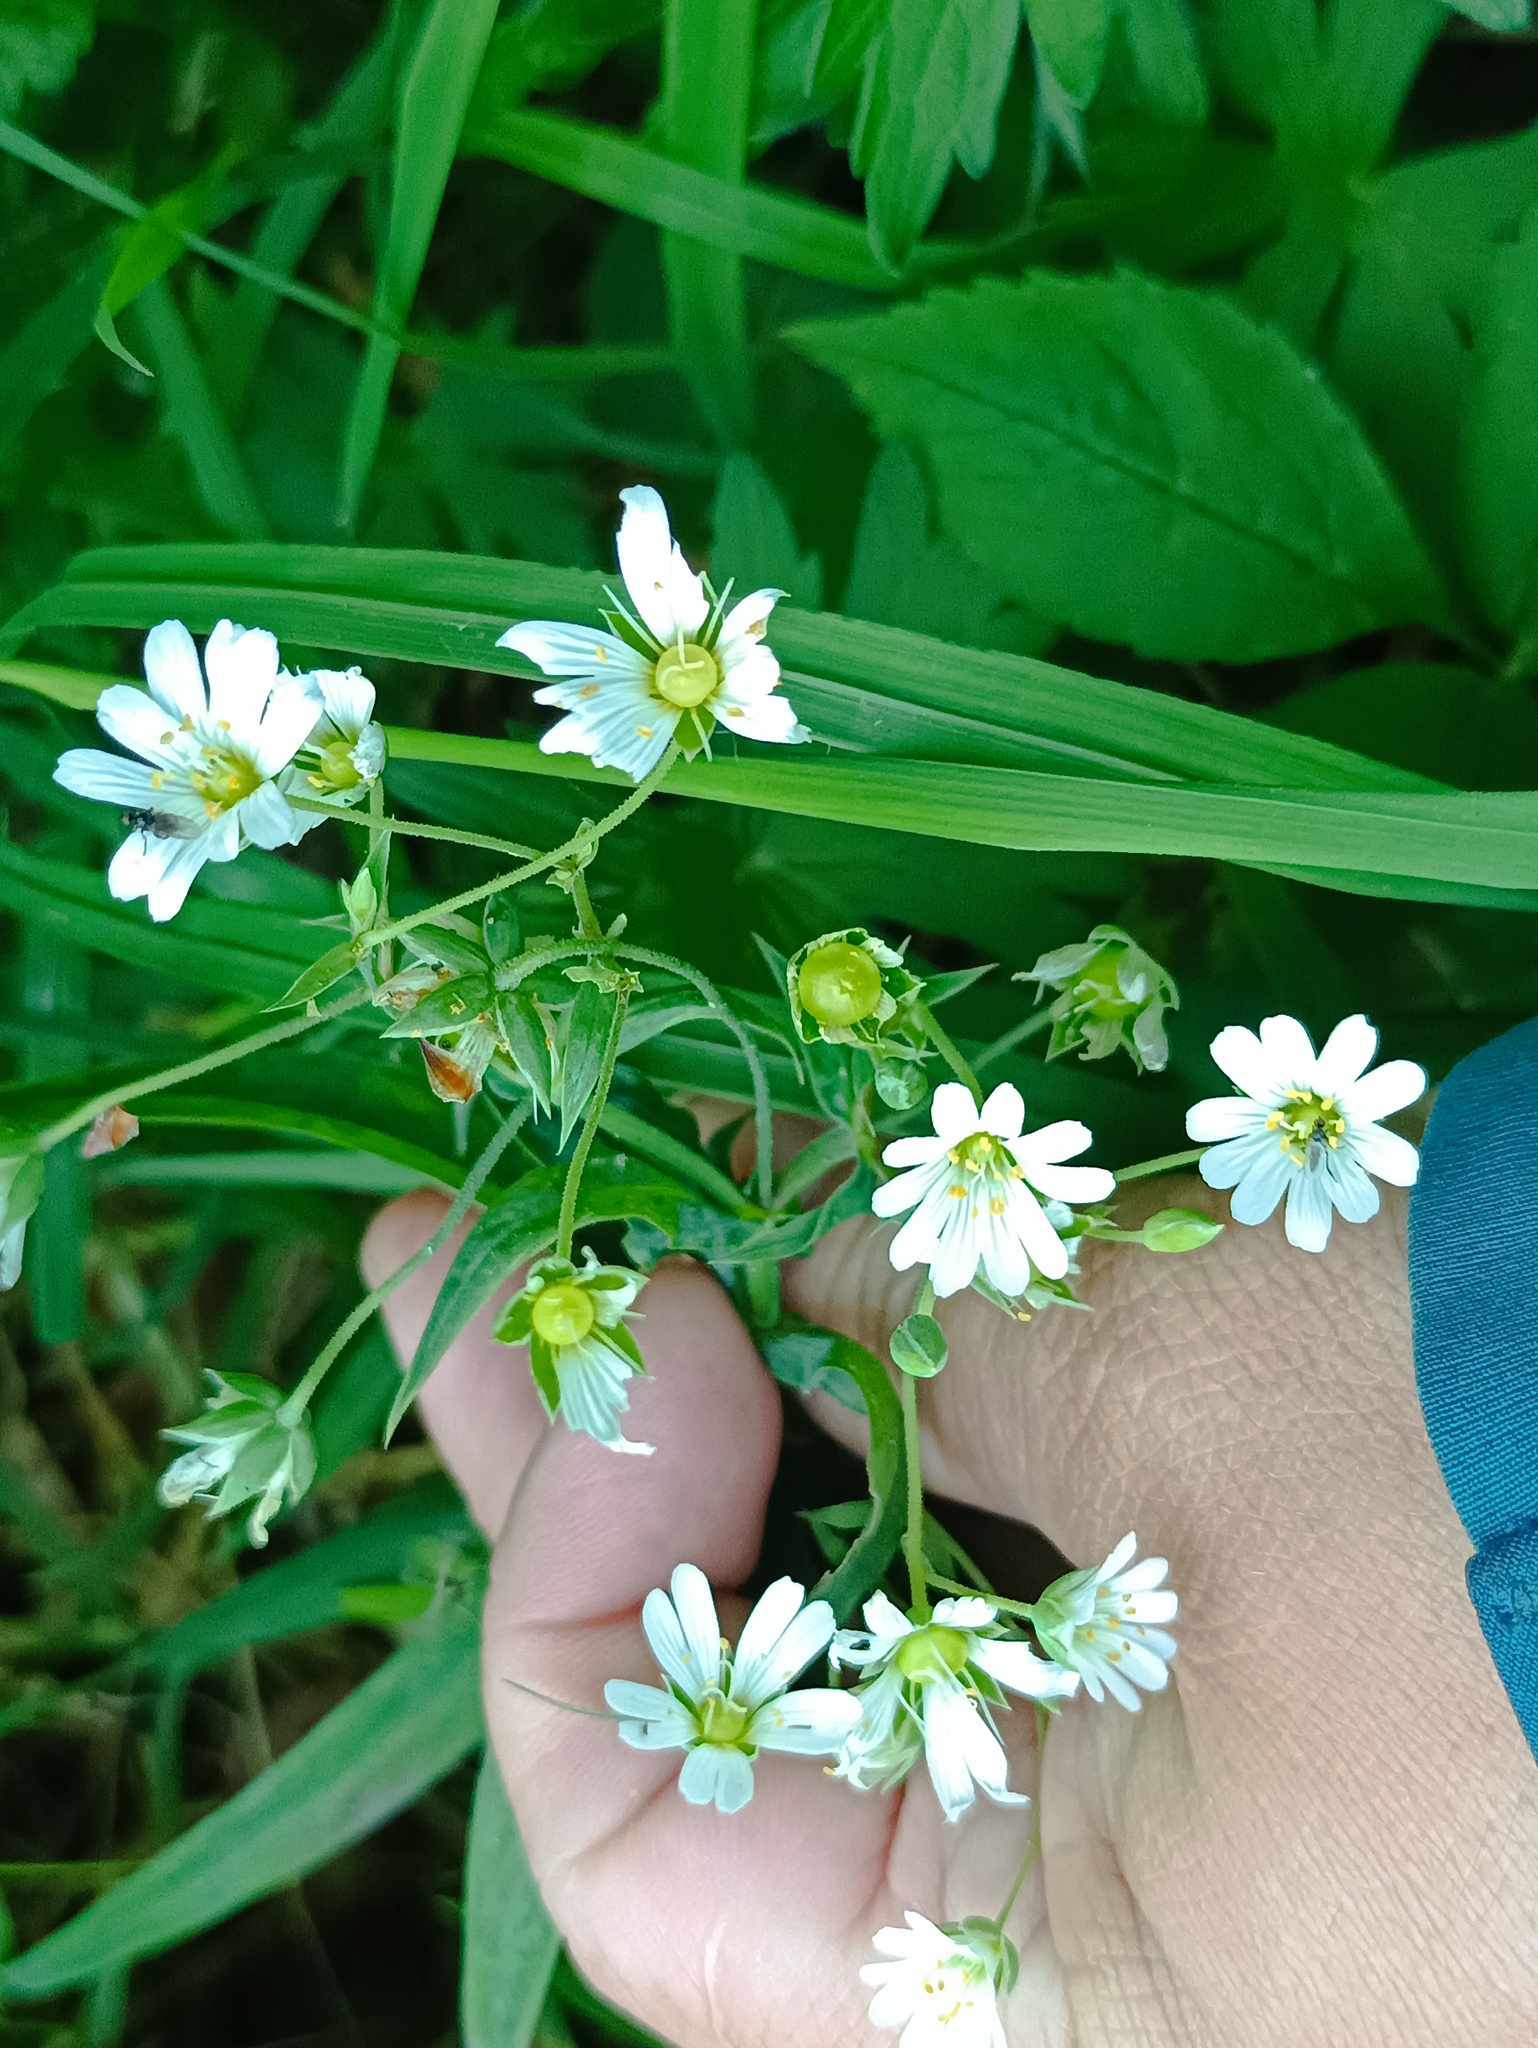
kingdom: Plantae
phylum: Tracheophyta
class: Magnoliopsida
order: Caryophyllales
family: Caryophyllaceae
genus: Rabelera
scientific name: Rabelera holostea
